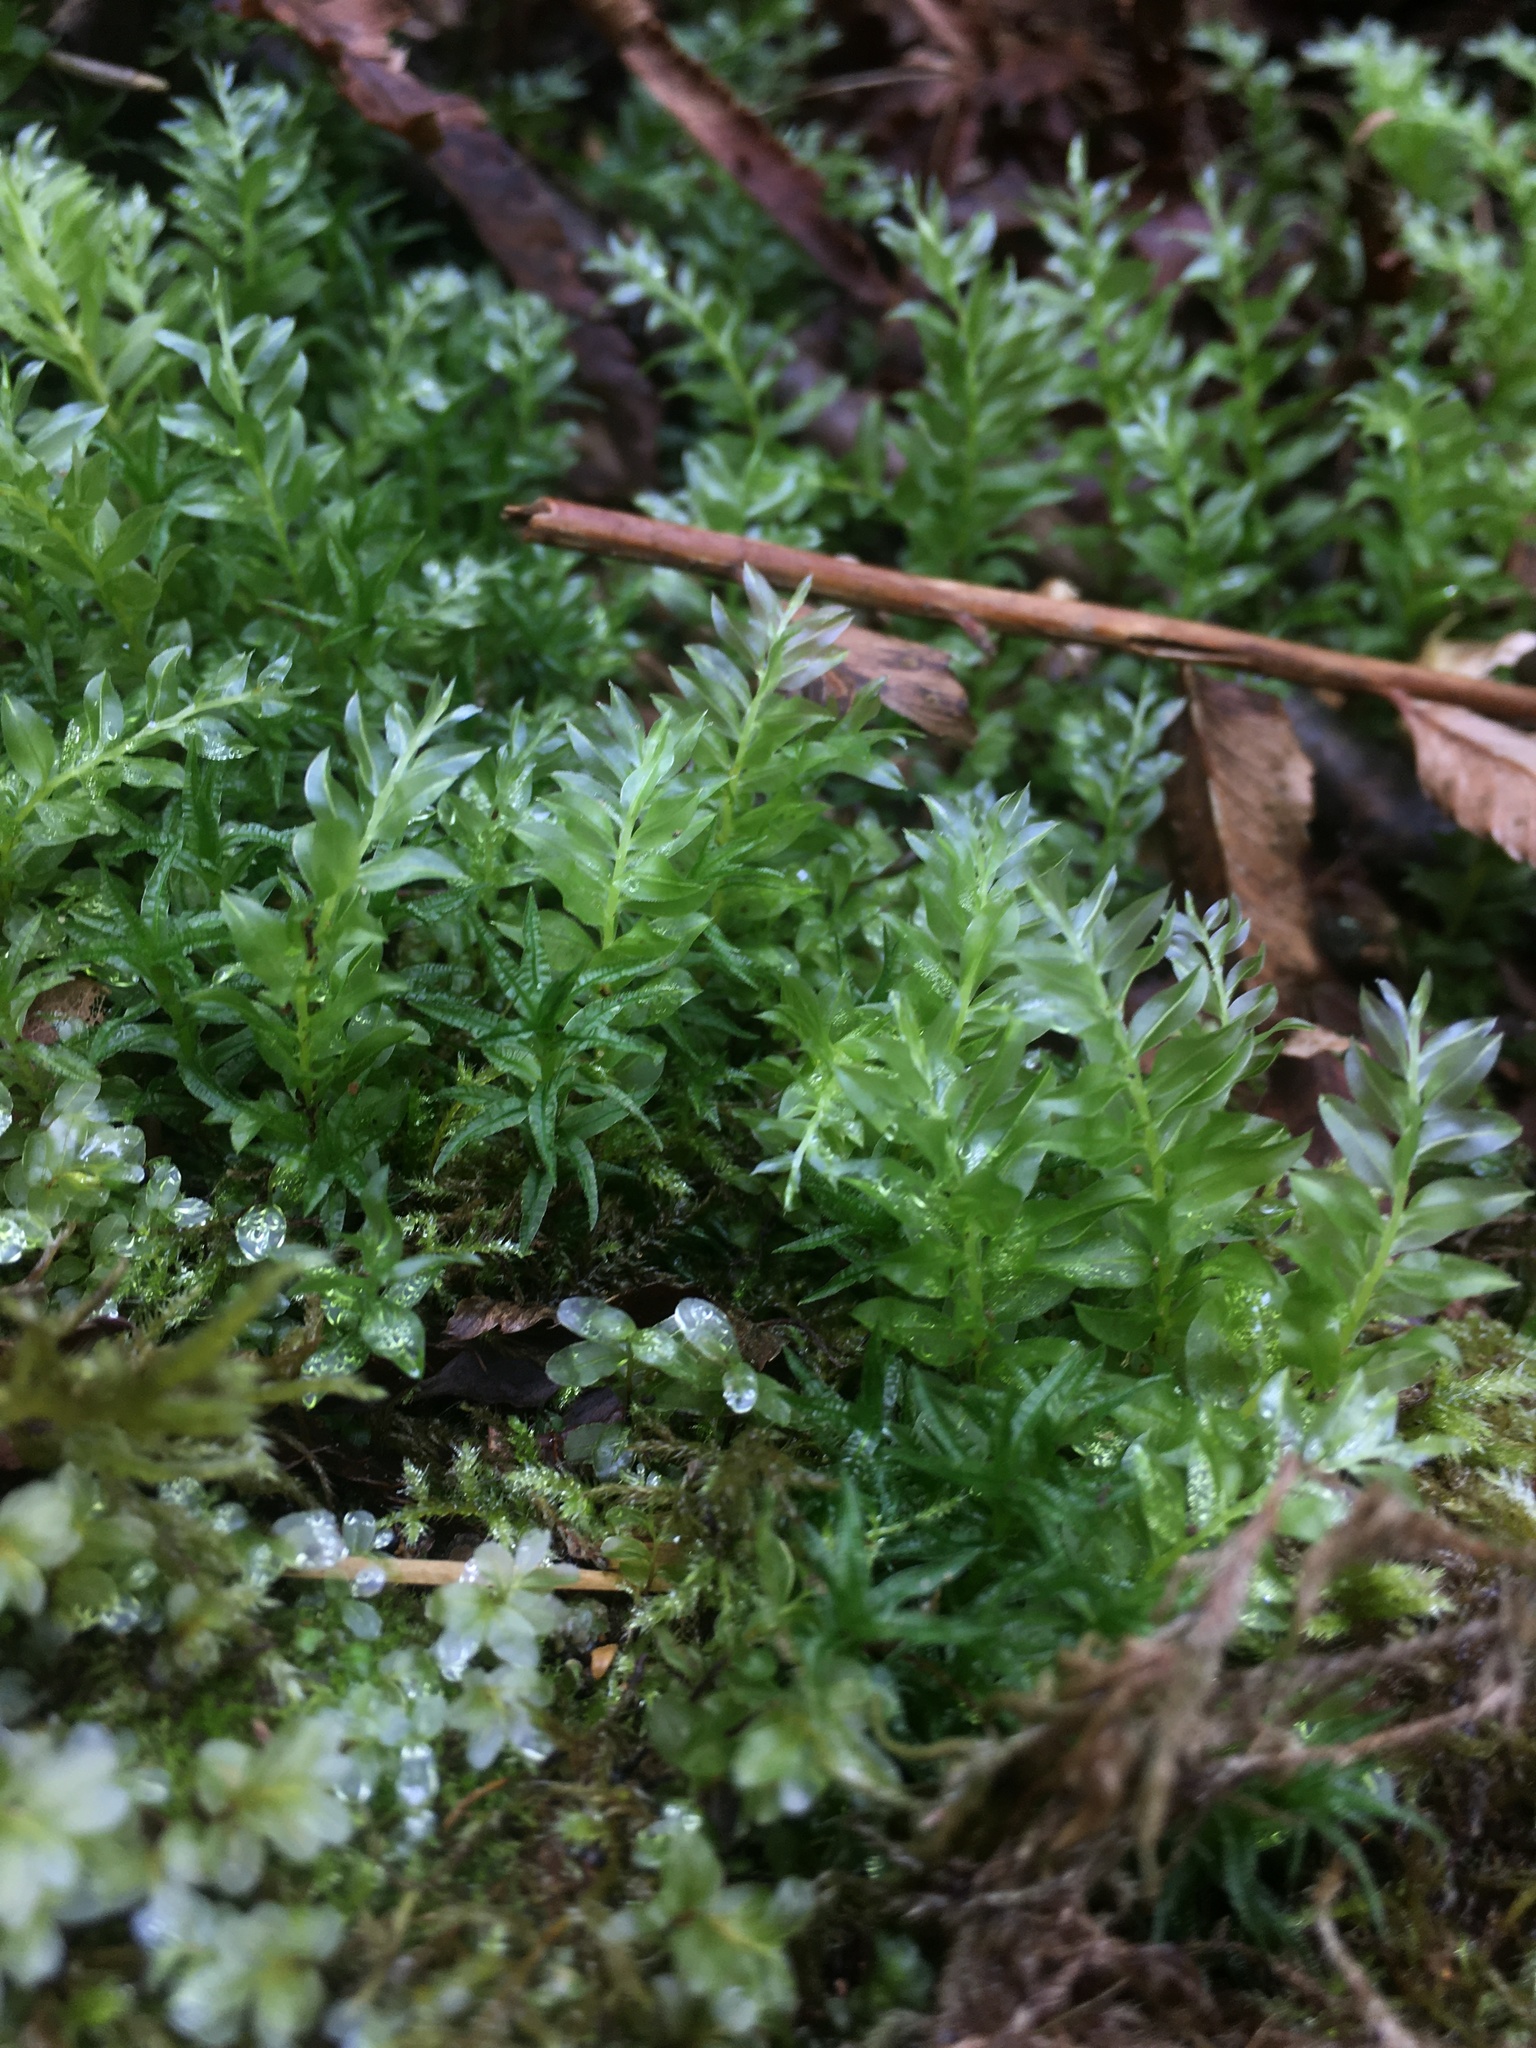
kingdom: Plantae
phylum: Bryophyta
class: Bryopsida
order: Bryales
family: Mniaceae
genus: Plagiomnium
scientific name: Plagiomnium insigne
